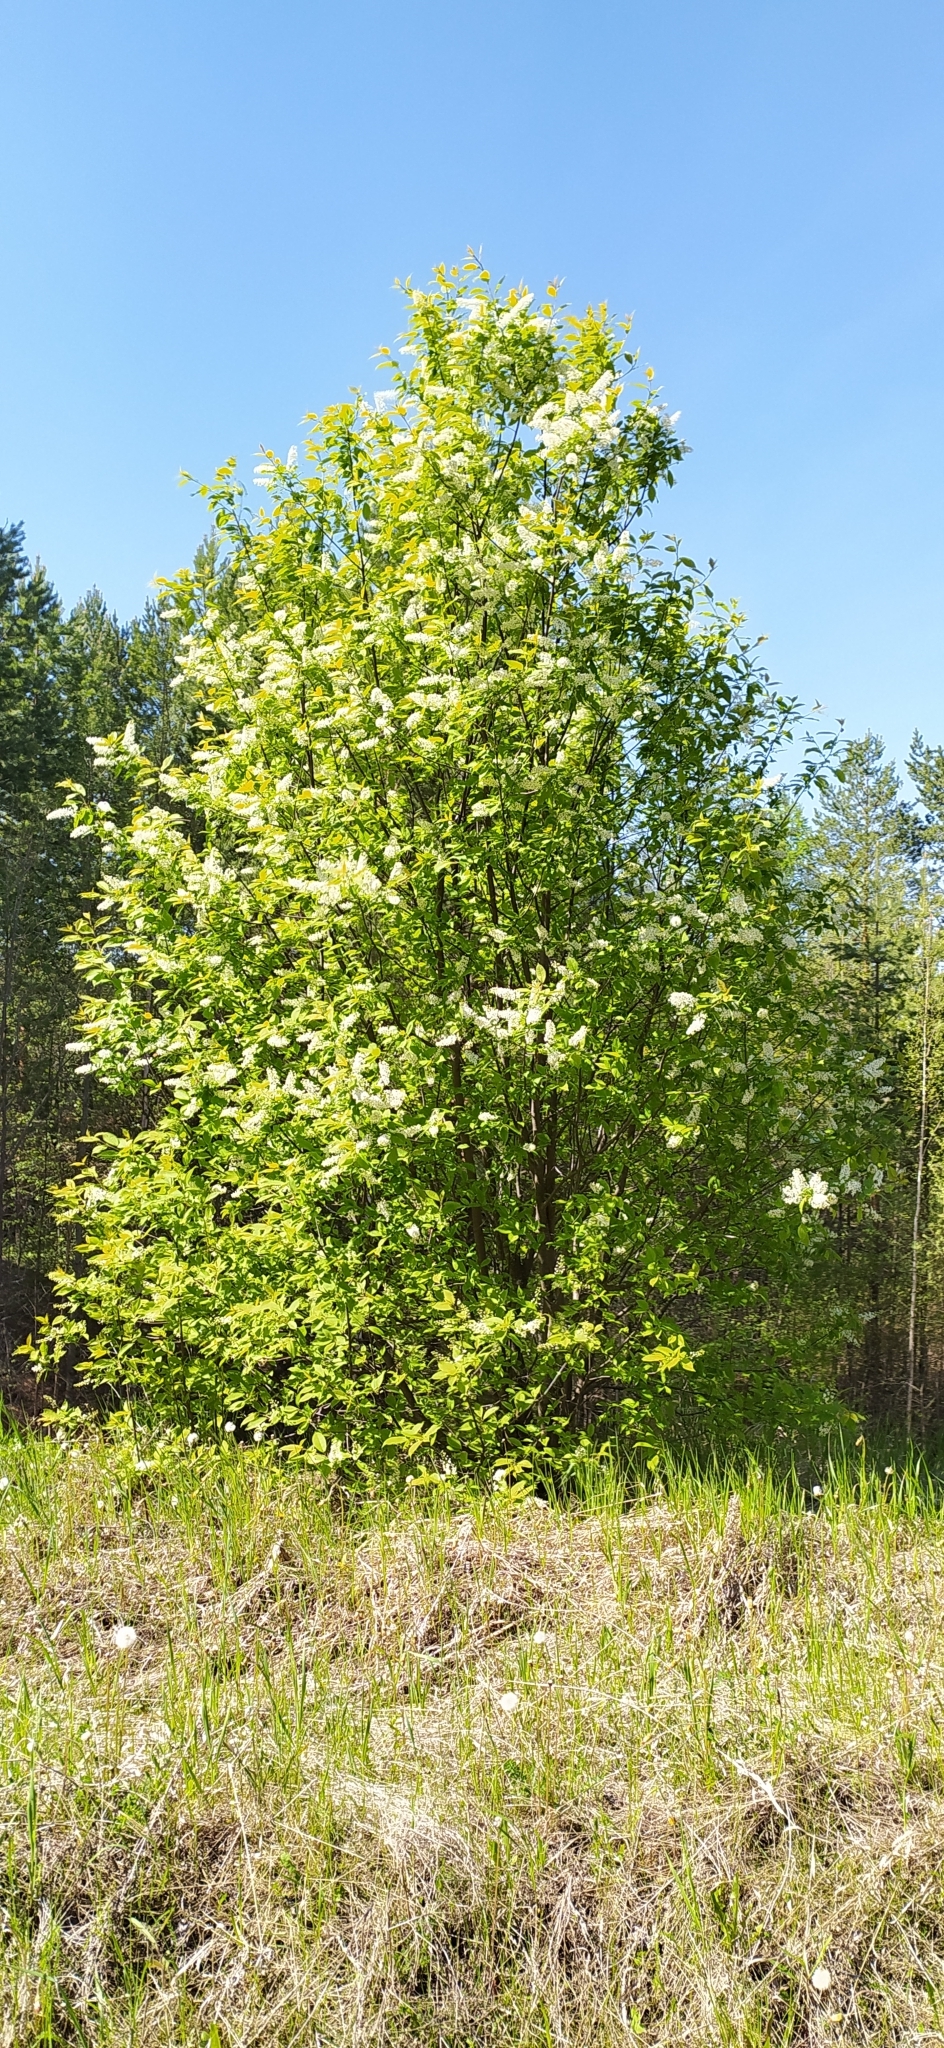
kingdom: Plantae
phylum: Tracheophyta
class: Magnoliopsida
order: Rosales
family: Rosaceae
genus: Prunus
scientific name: Prunus padus
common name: Bird cherry
